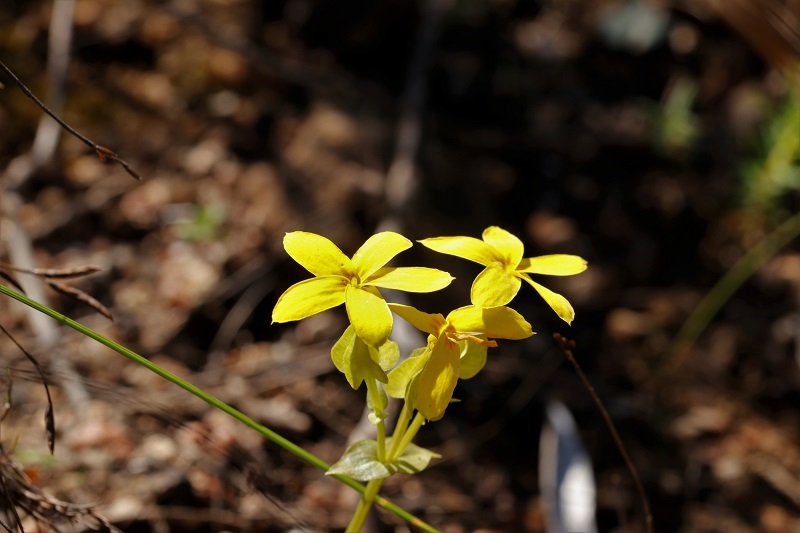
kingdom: Plantae
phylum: Tracheophyta
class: Magnoliopsida
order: Gentianales
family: Gentianaceae
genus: Sebaea
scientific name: Sebaea exacoides
